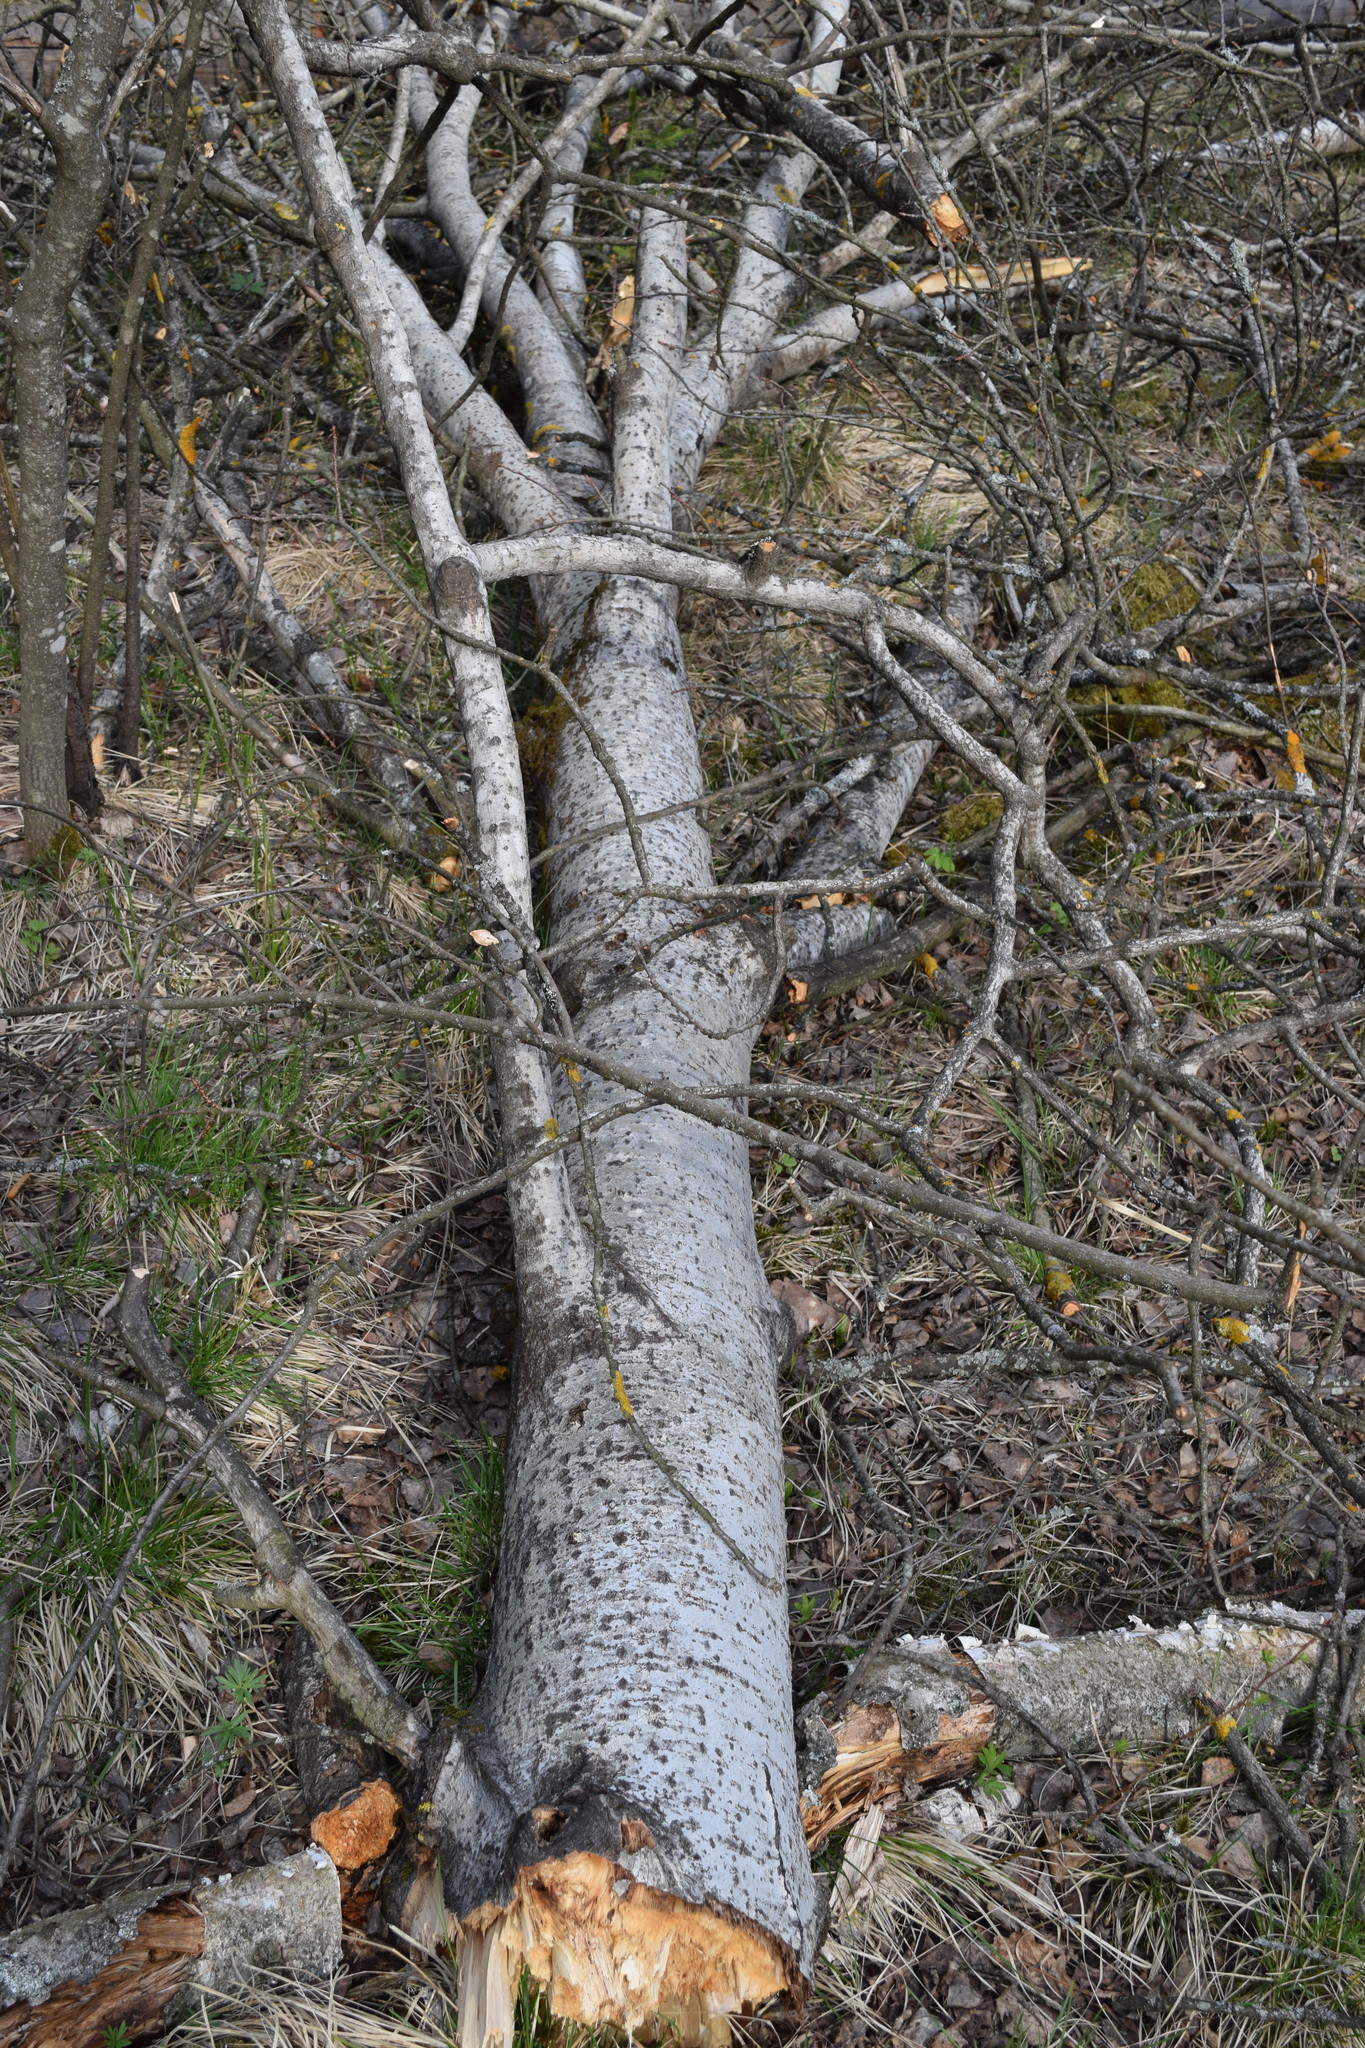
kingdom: Plantae
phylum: Tracheophyta
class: Magnoliopsida
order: Malpighiales
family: Salicaceae
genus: Populus
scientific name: Populus tremula
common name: European aspen
